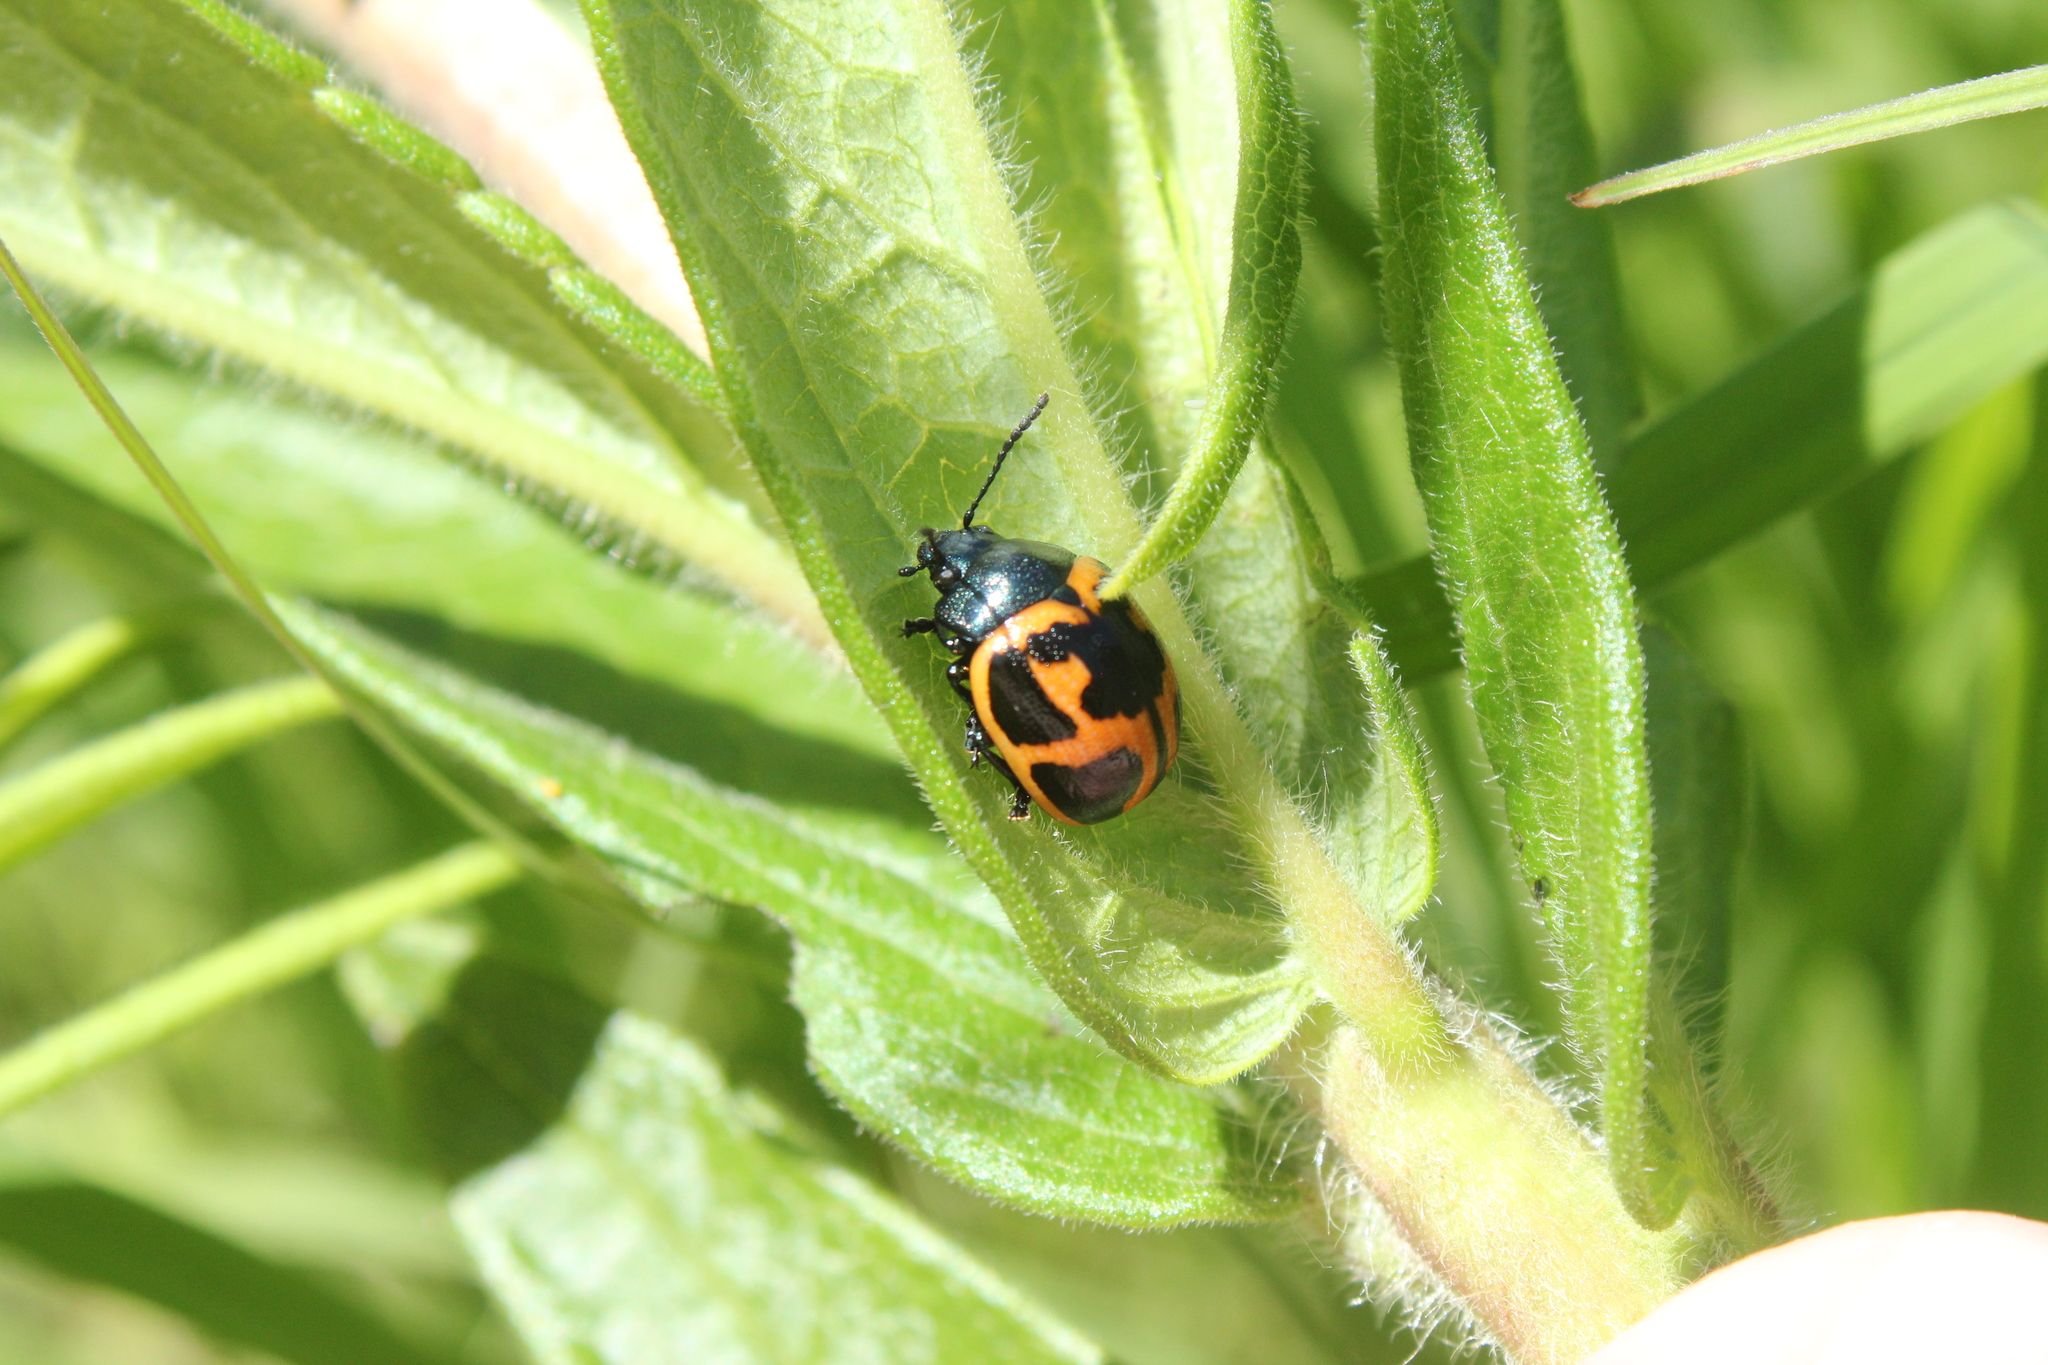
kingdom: Animalia
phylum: Arthropoda
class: Insecta
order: Coleoptera
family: Chrysomelidae
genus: Labidomera
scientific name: Labidomera clivicollis
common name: Swamp milkweed leaf beetle
